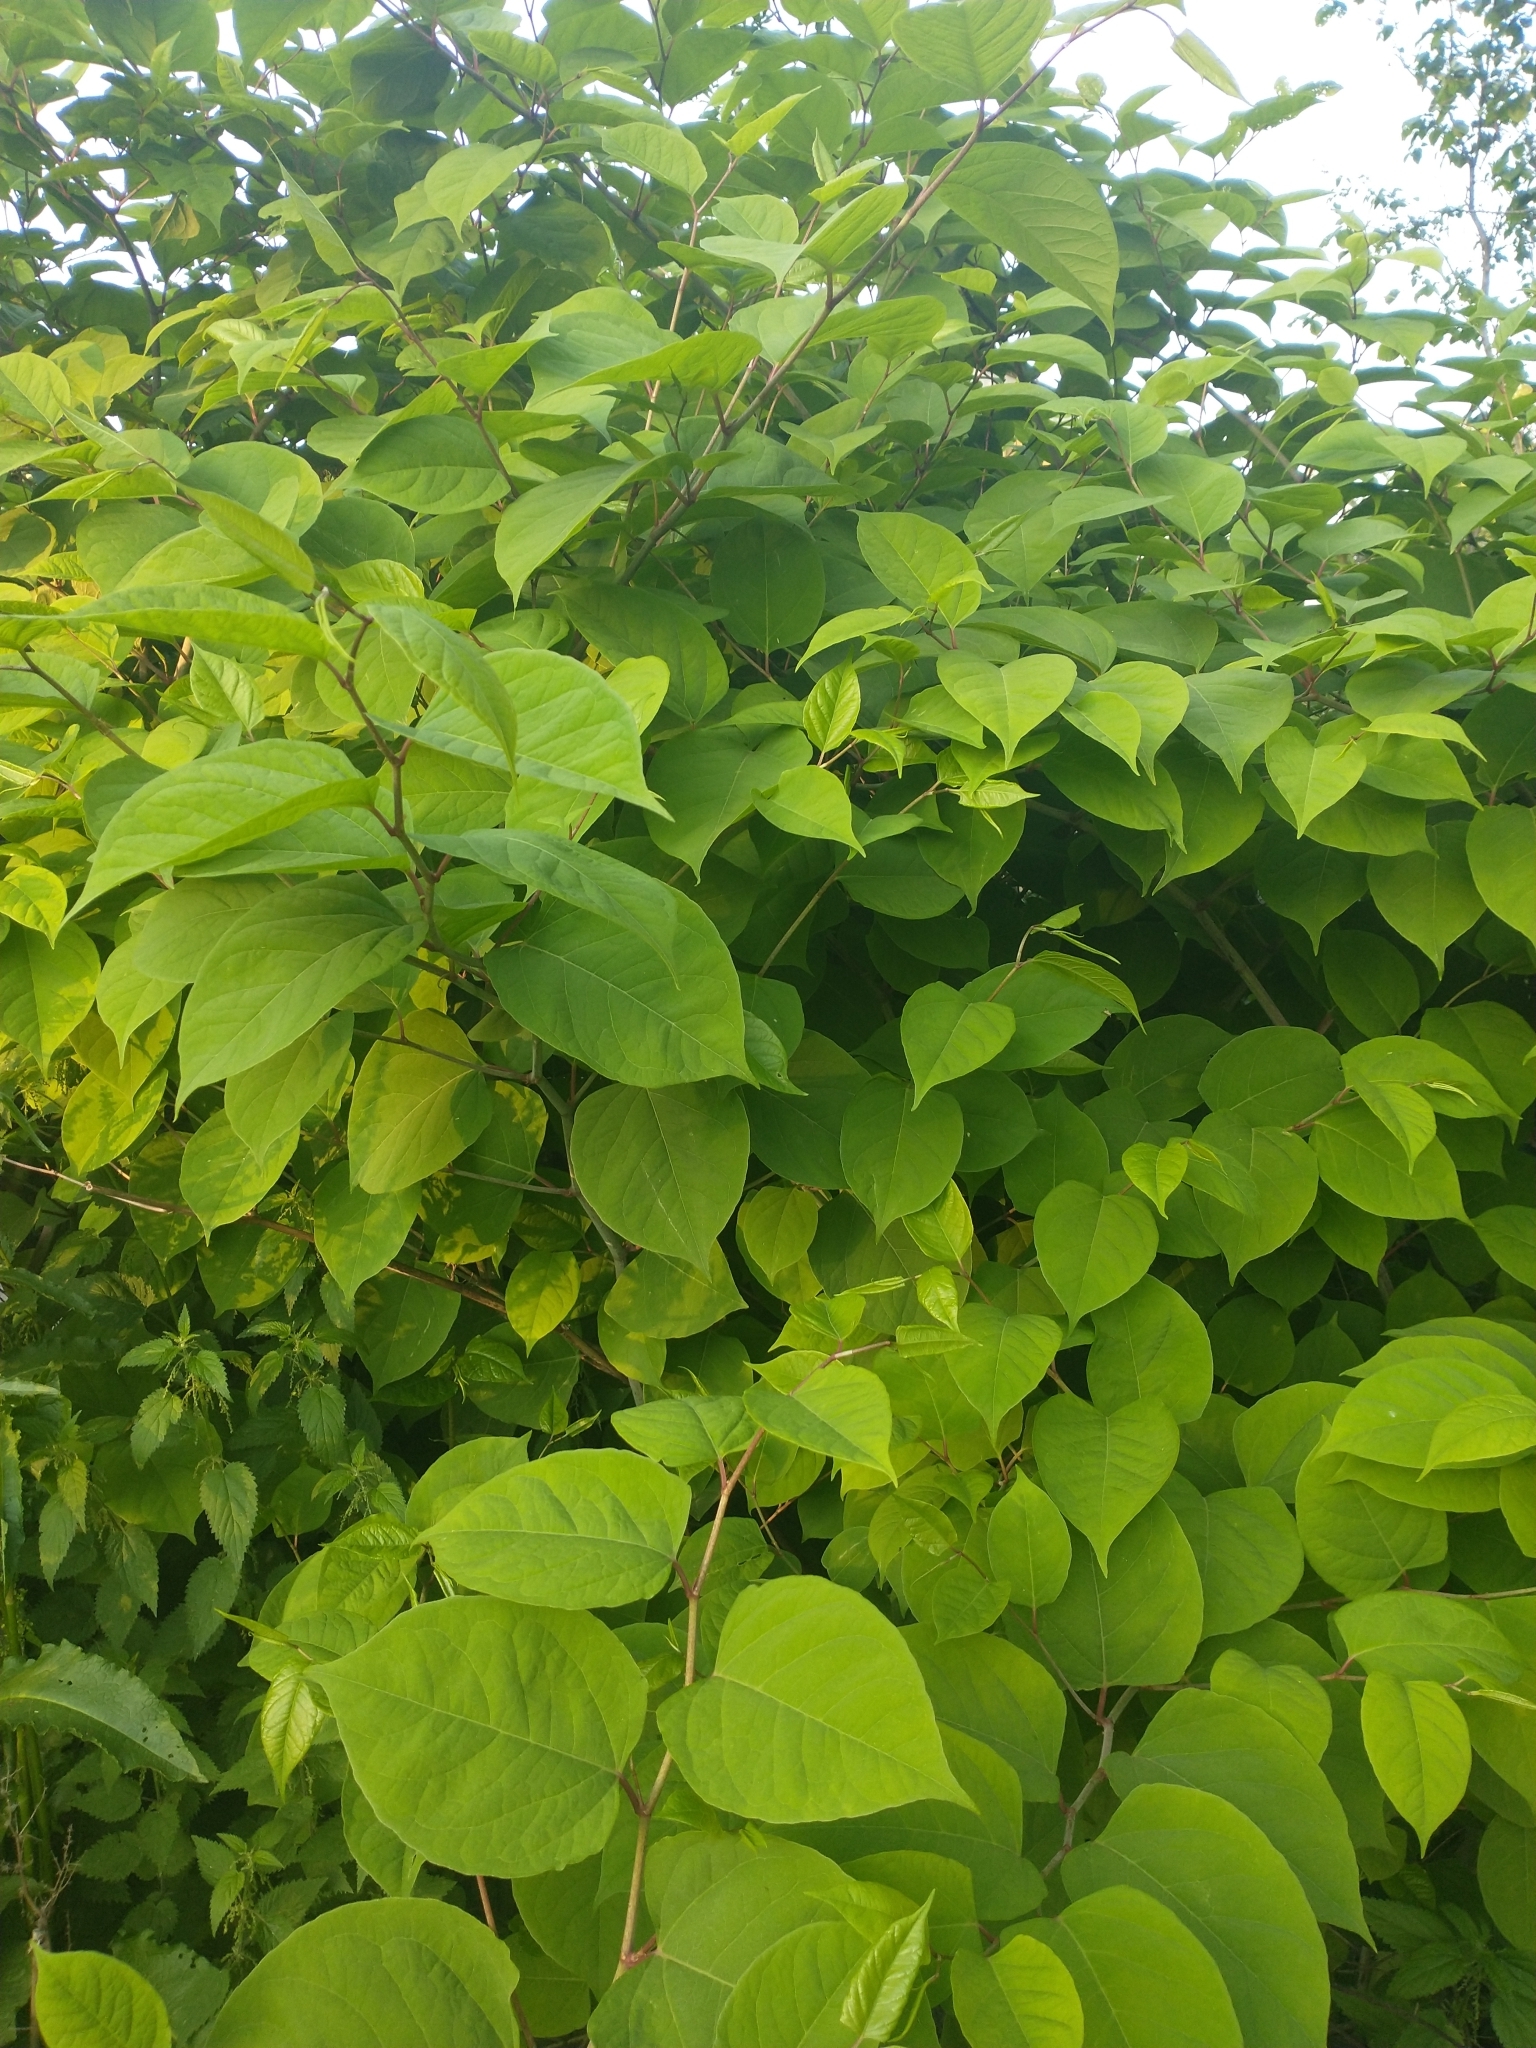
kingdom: Plantae
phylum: Tracheophyta
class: Magnoliopsida
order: Caryophyllales
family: Polygonaceae
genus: Reynoutria
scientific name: Reynoutria japonica
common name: Japanese knotweed
